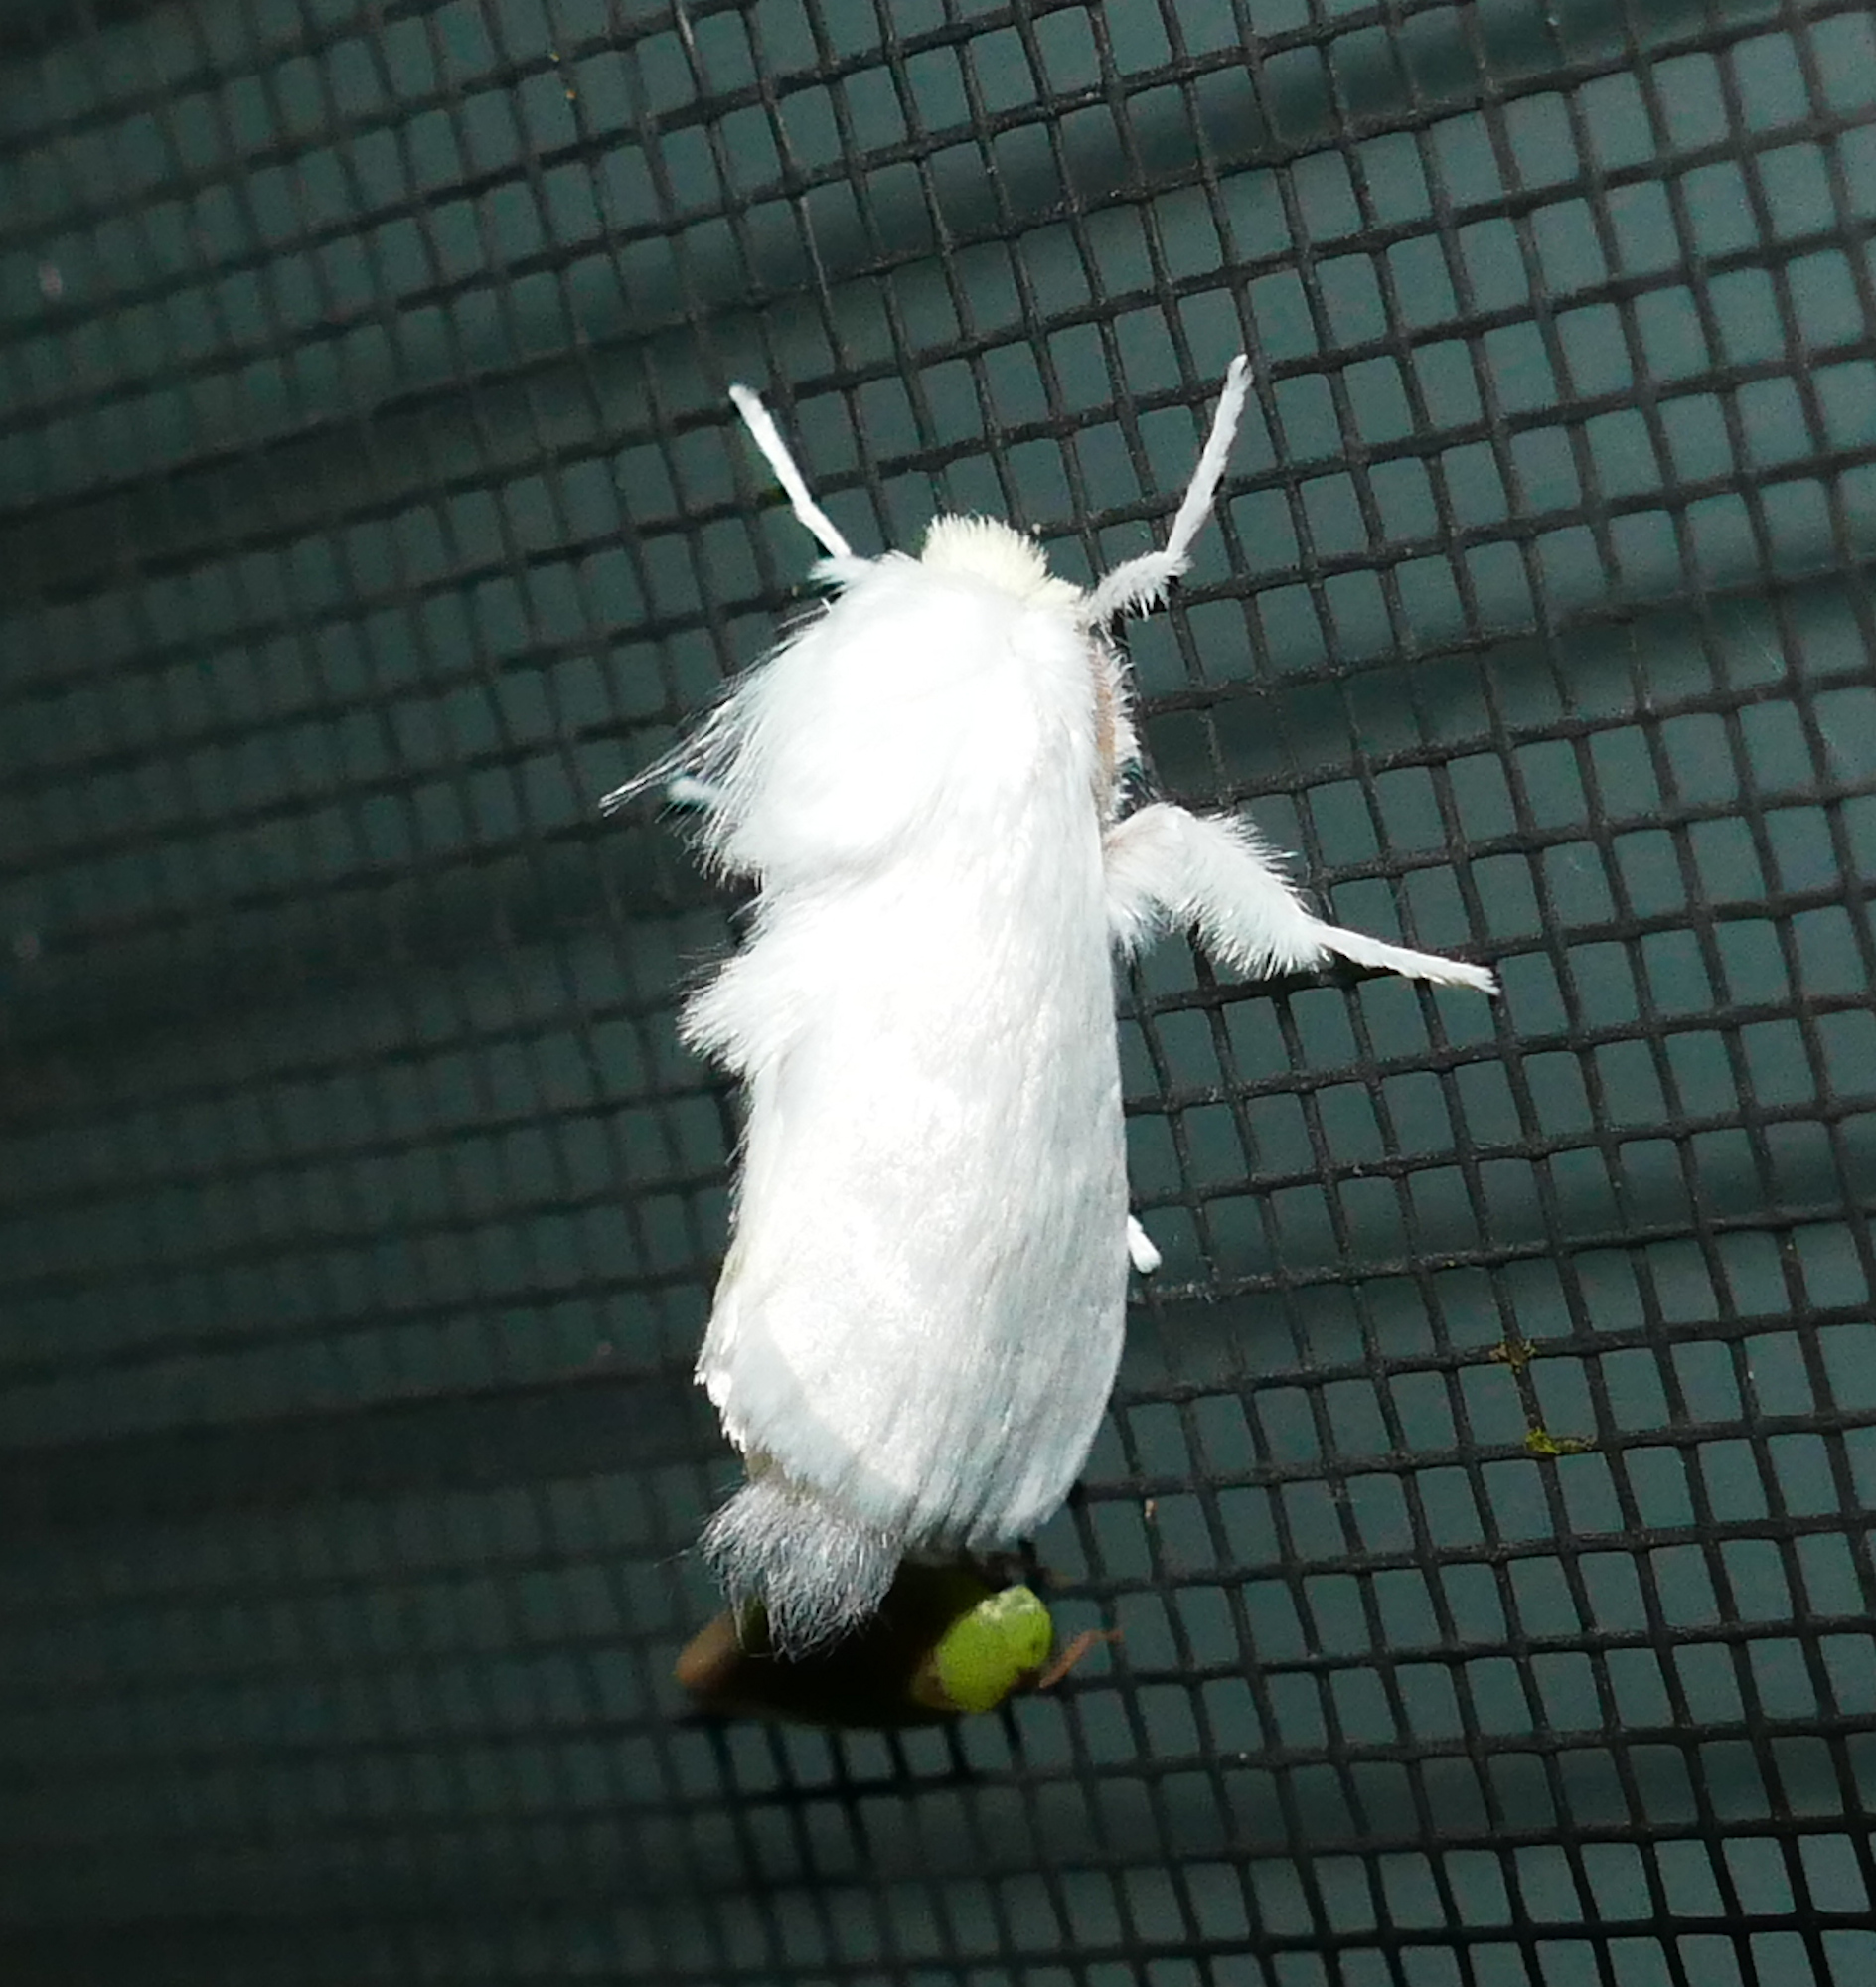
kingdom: Animalia
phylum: Arthropoda
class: Insecta
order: Lepidoptera
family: Megalopygidae
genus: Norape
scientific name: Norape cretata
